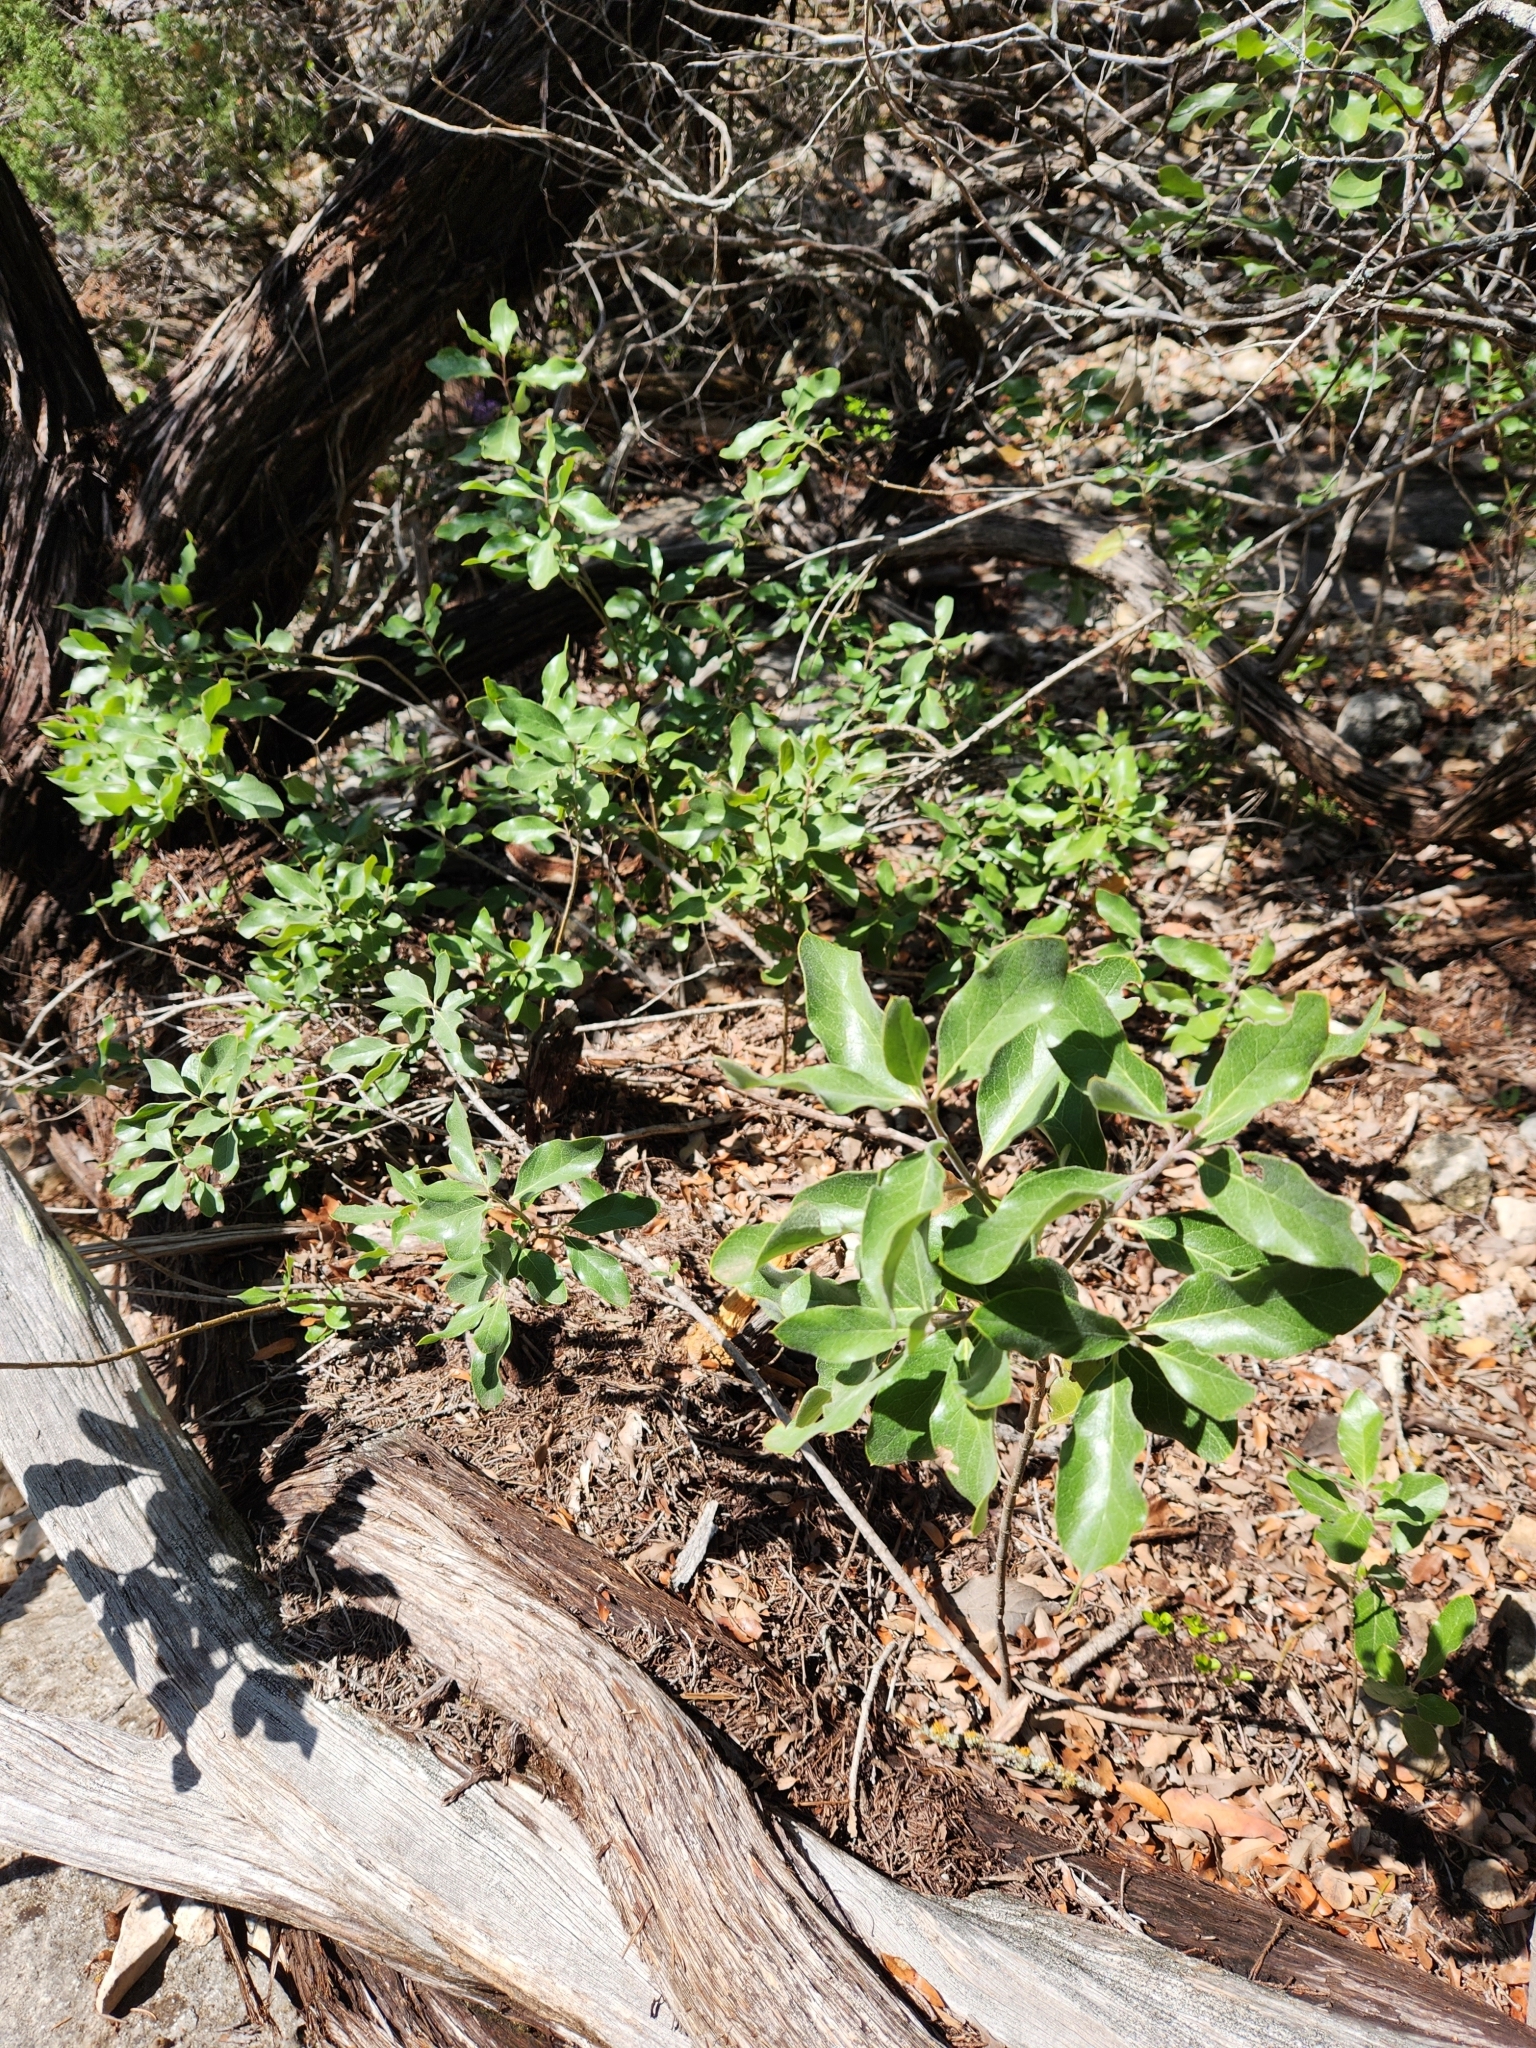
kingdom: Plantae
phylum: Tracheophyta
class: Magnoliopsida
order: Garryales
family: Garryaceae
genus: Garrya
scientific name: Garrya lindheimeri
